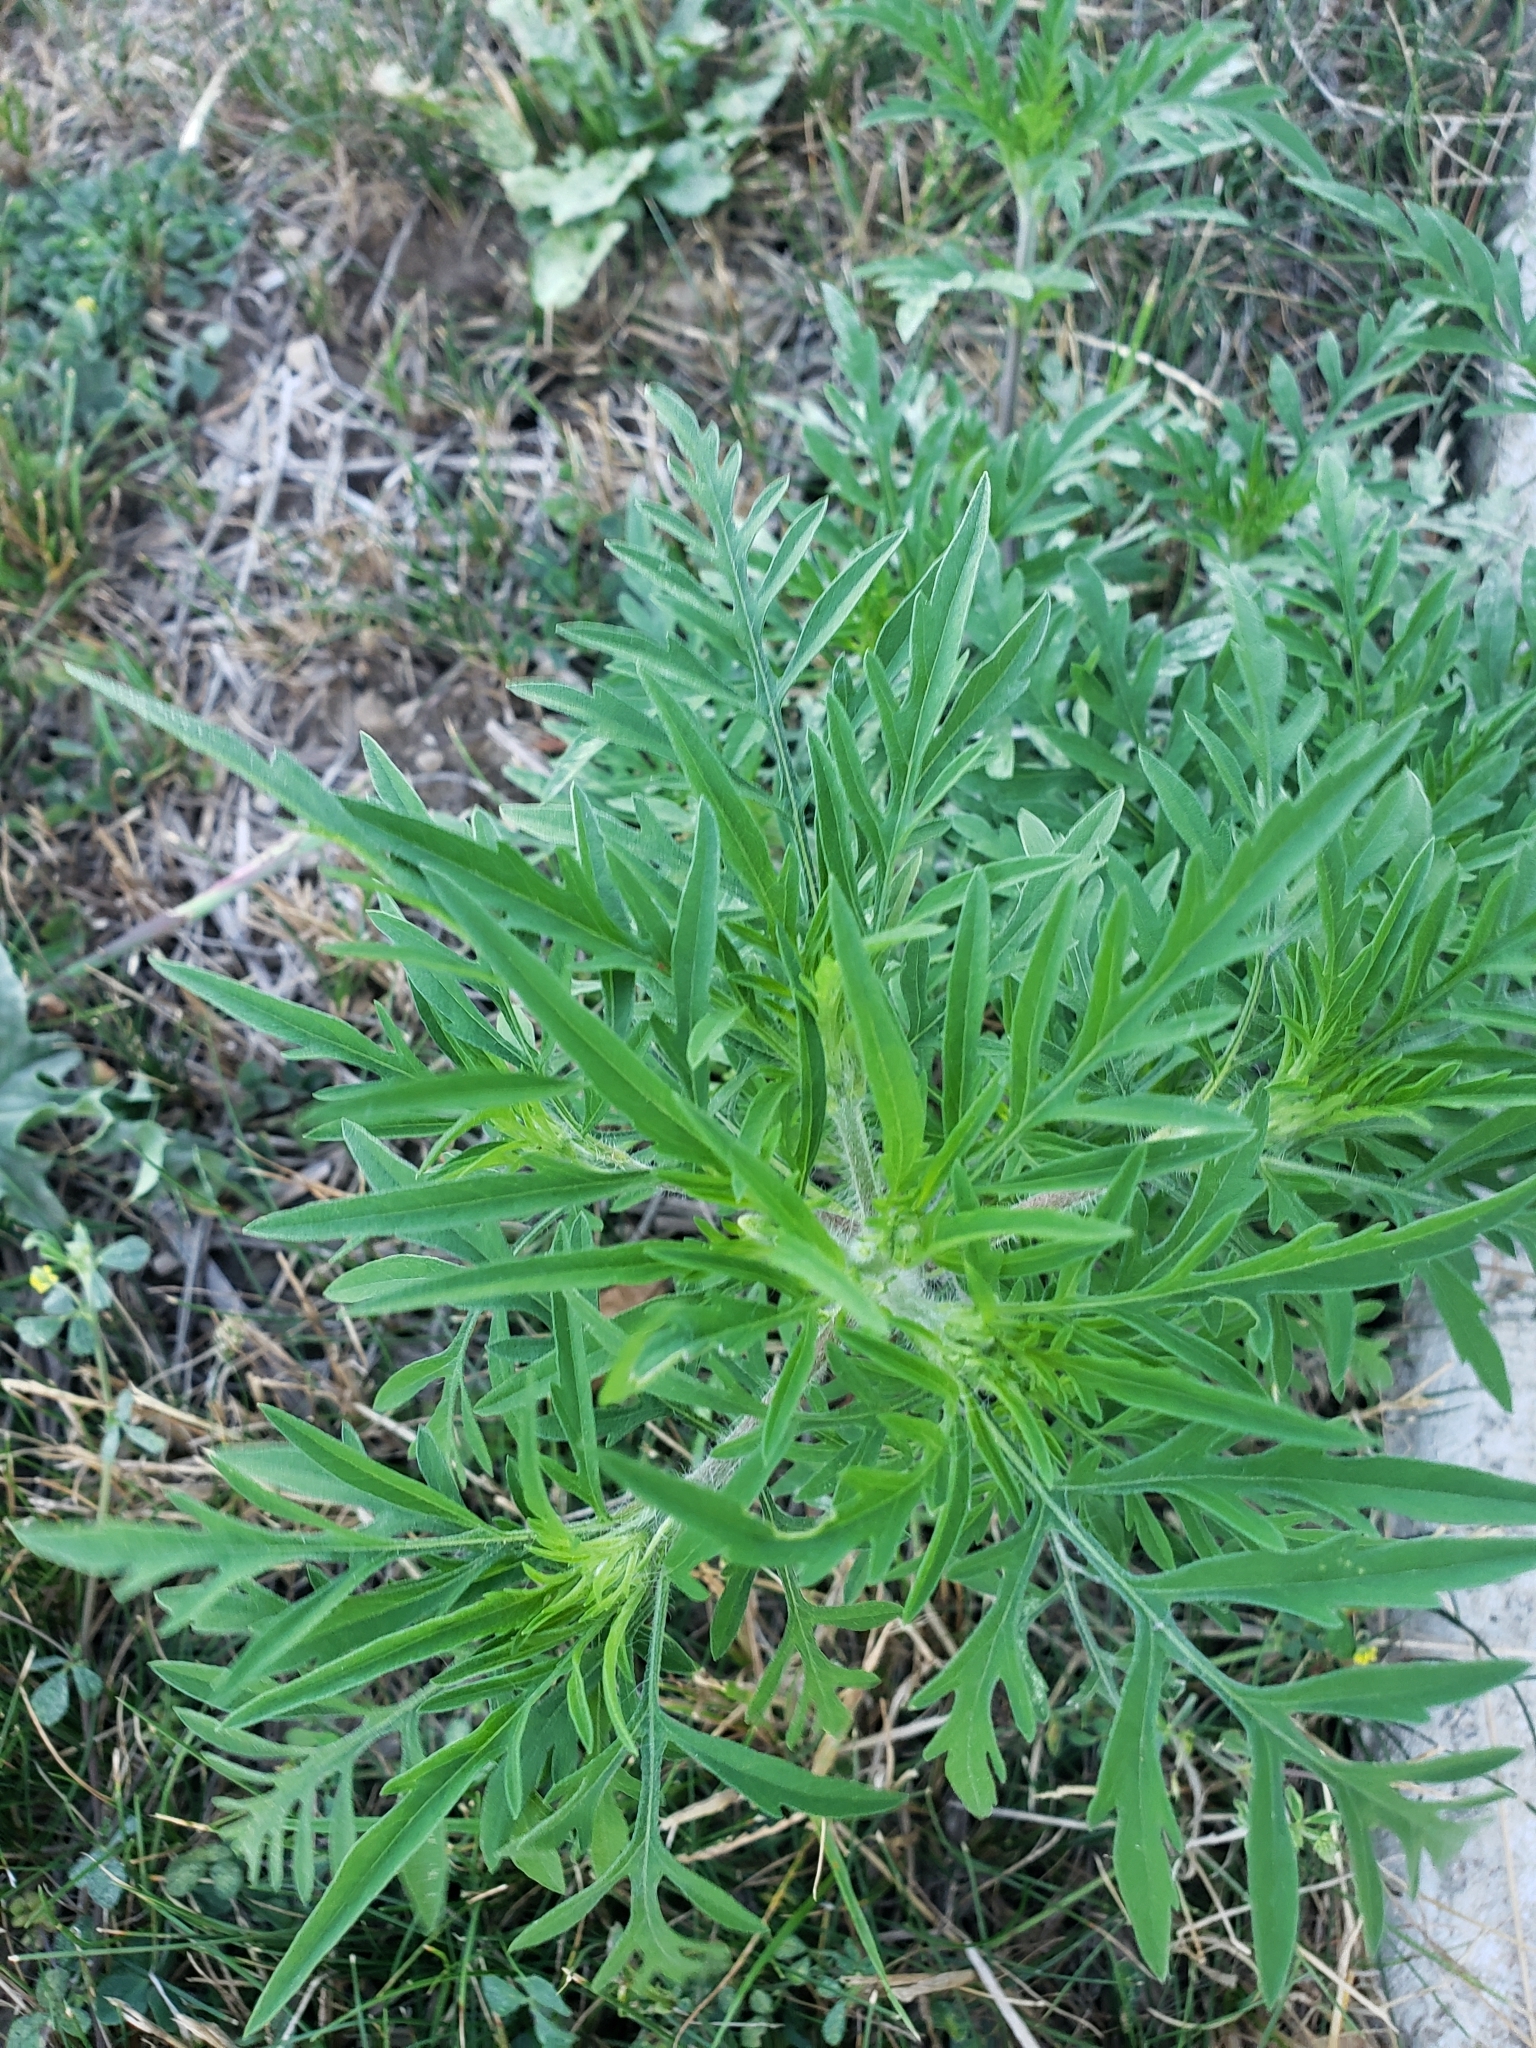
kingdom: Plantae
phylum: Tracheophyta
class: Magnoliopsida
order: Asterales
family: Asteraceae
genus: Ambrosia
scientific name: Ambrosia artemisiifolia
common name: Annual ragweed
